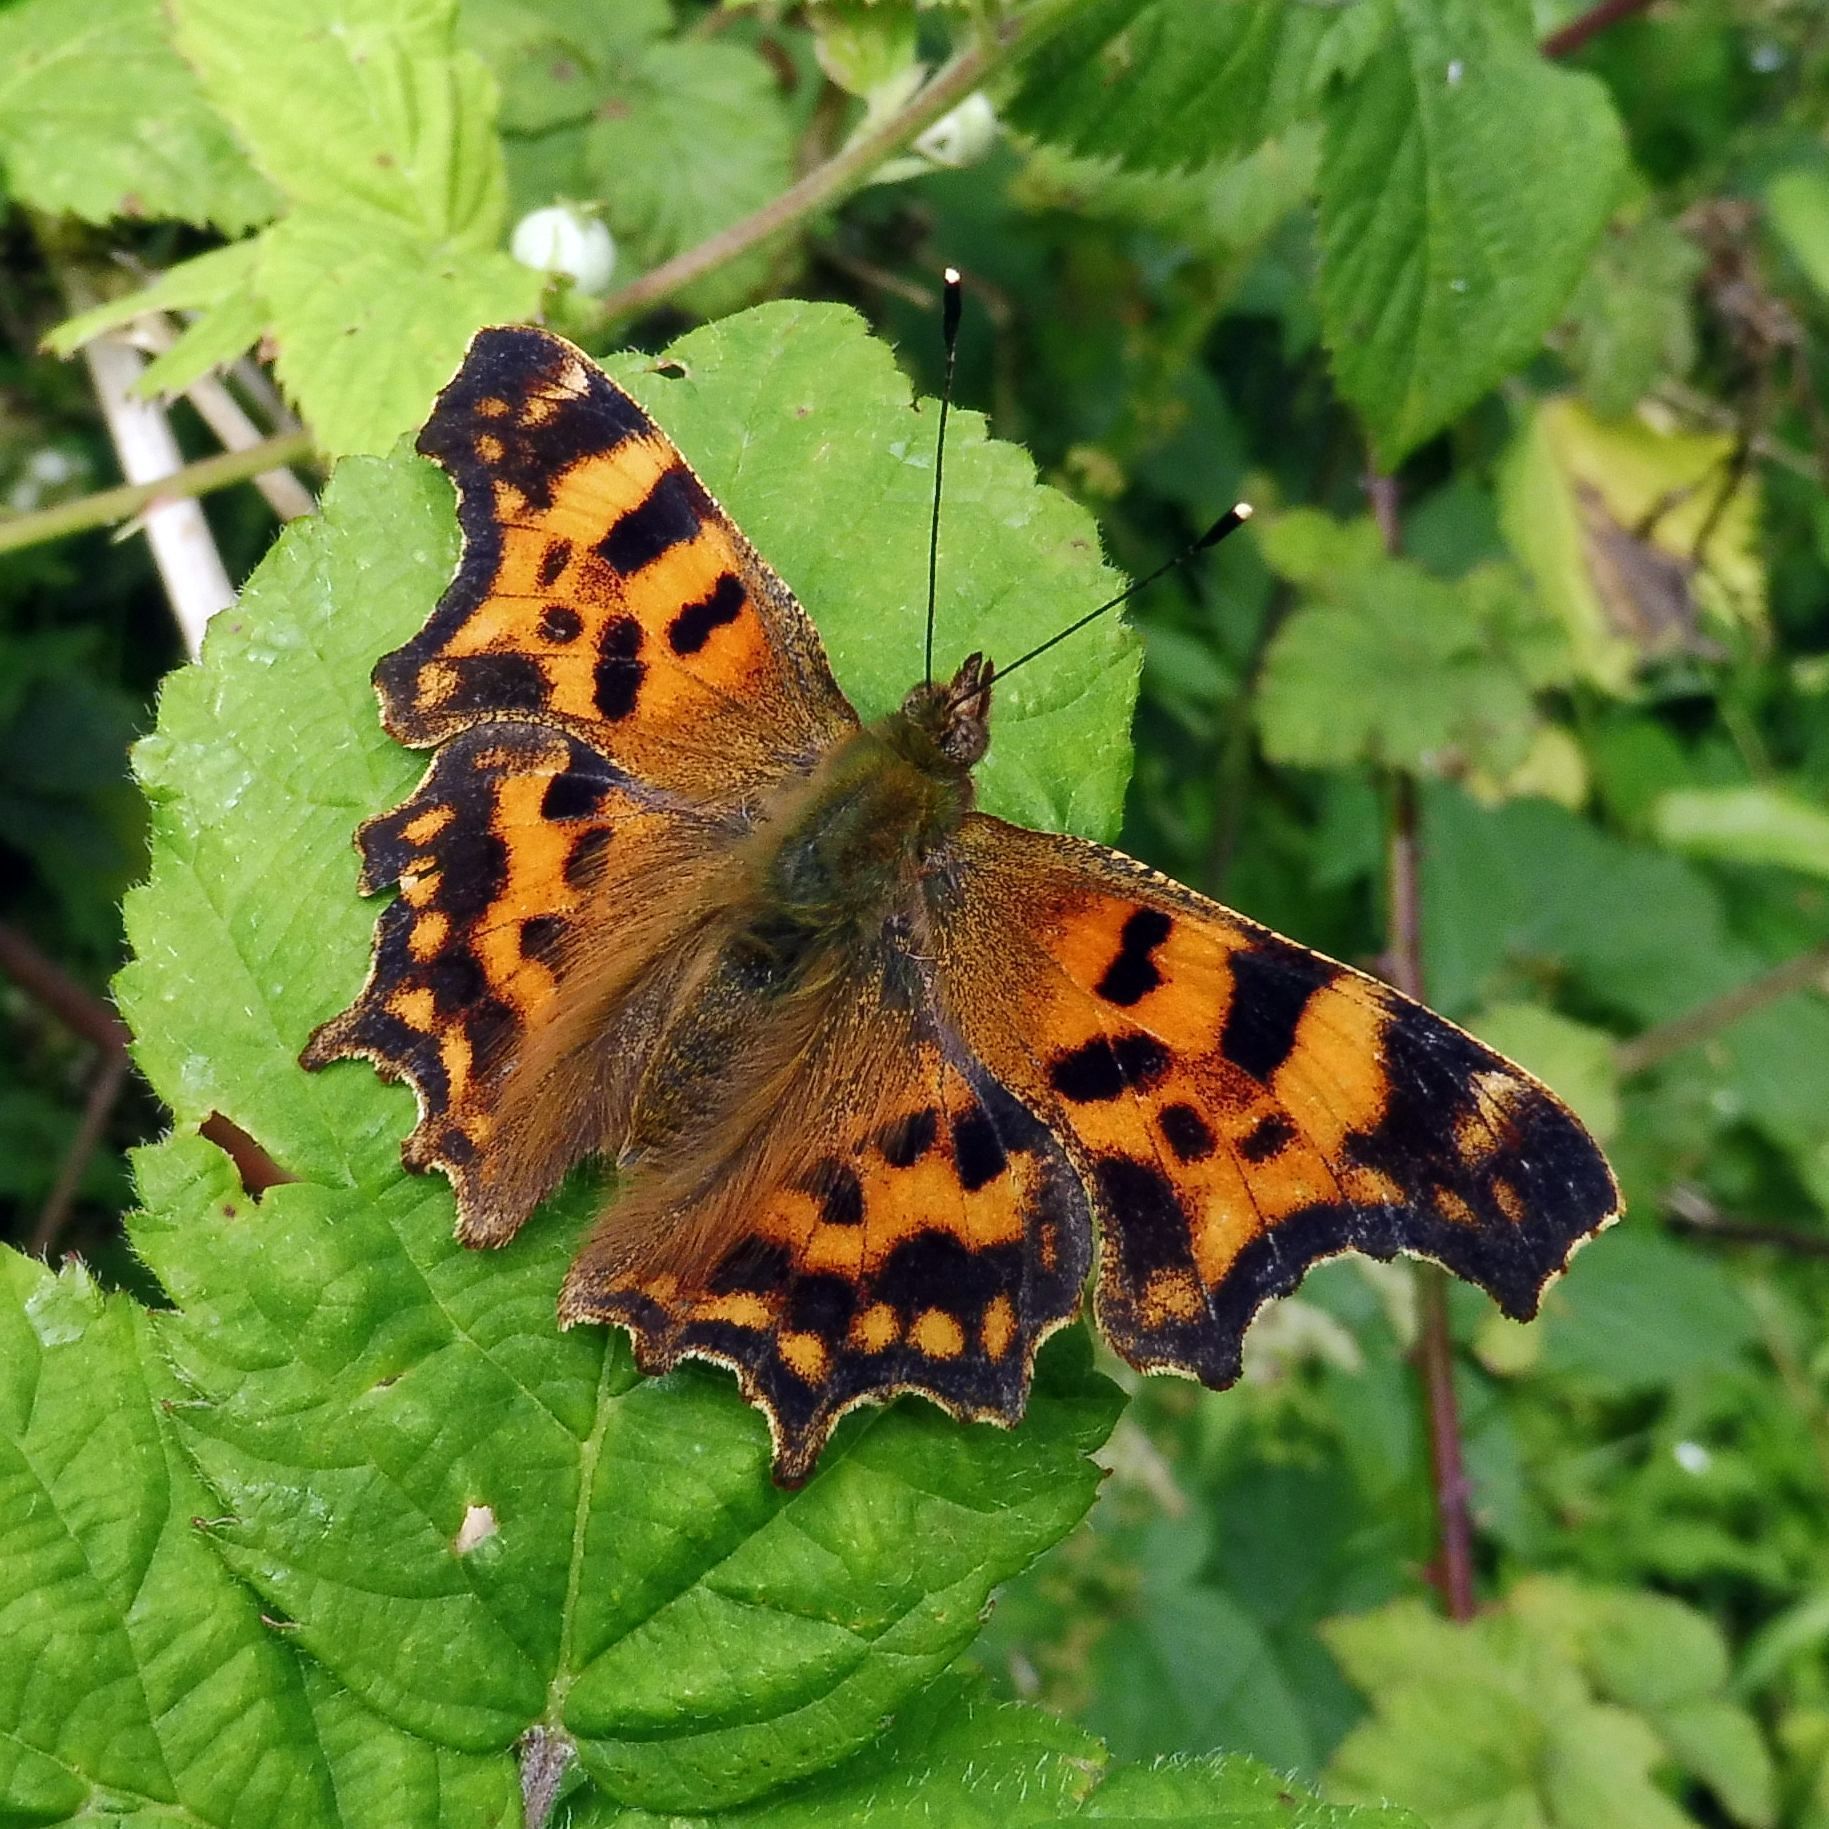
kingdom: Animalia
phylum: Arthropoda
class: Insecta
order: Lepidoptera
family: Nymphalidae
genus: Polygonia
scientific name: Polygonia c-album
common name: Comma
